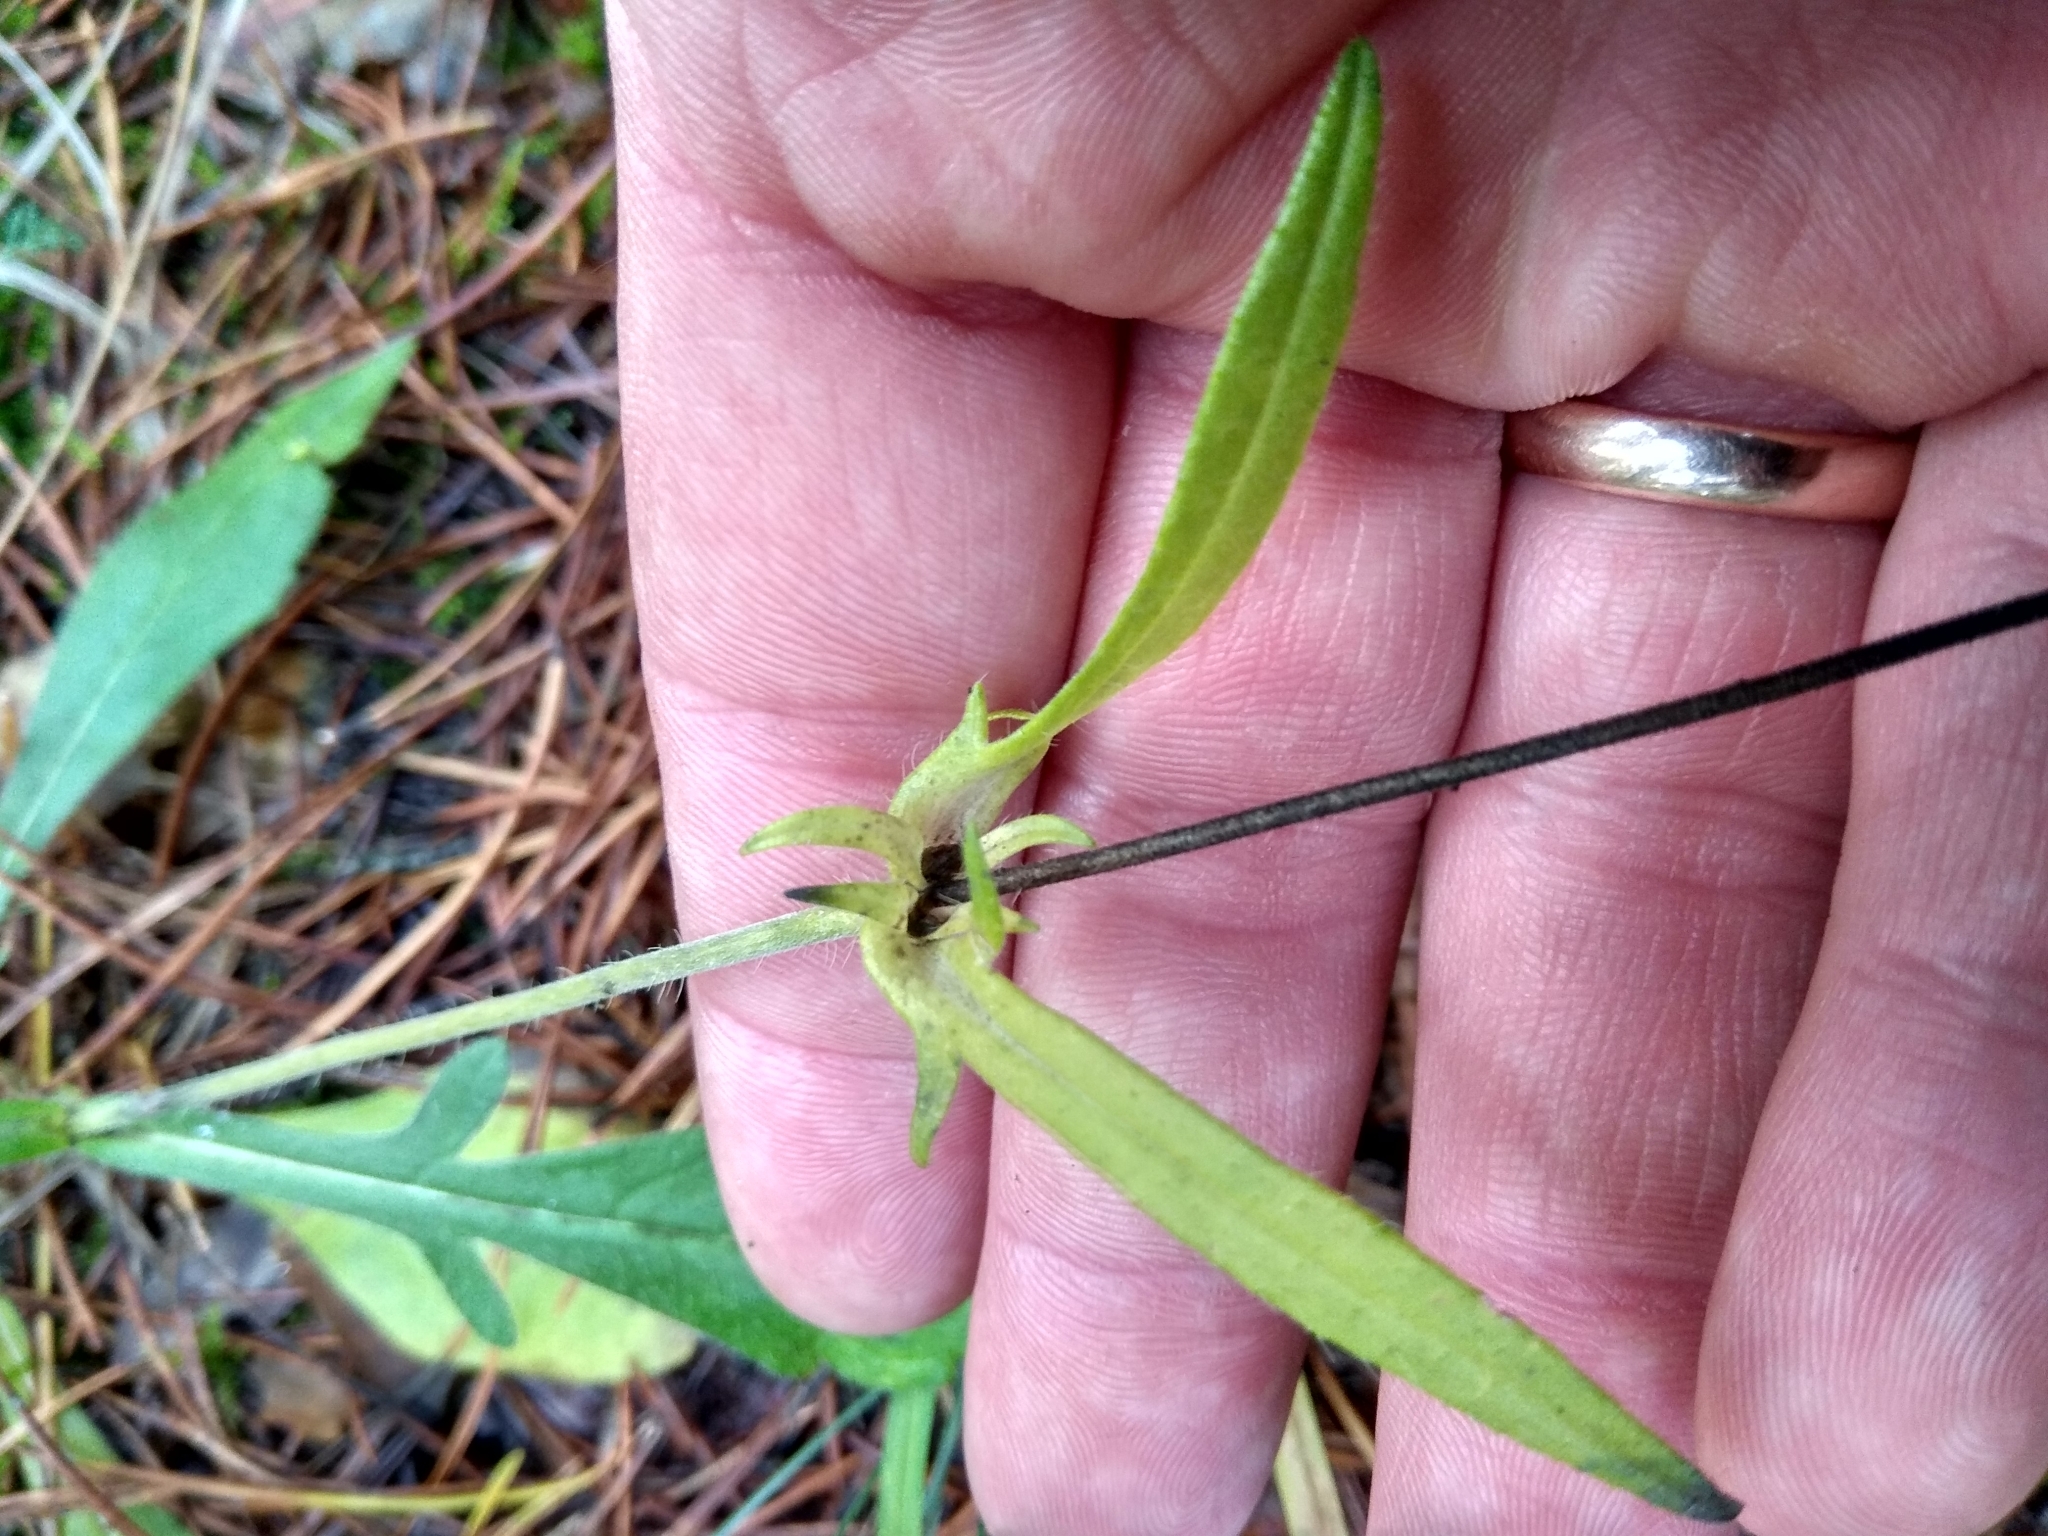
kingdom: Plantae
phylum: Tracheophyta
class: Magnoliopsida
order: Dipsacales
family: Caprifoliaceae
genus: Knautia
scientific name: Knautia arvensis
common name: Field scabiosa
